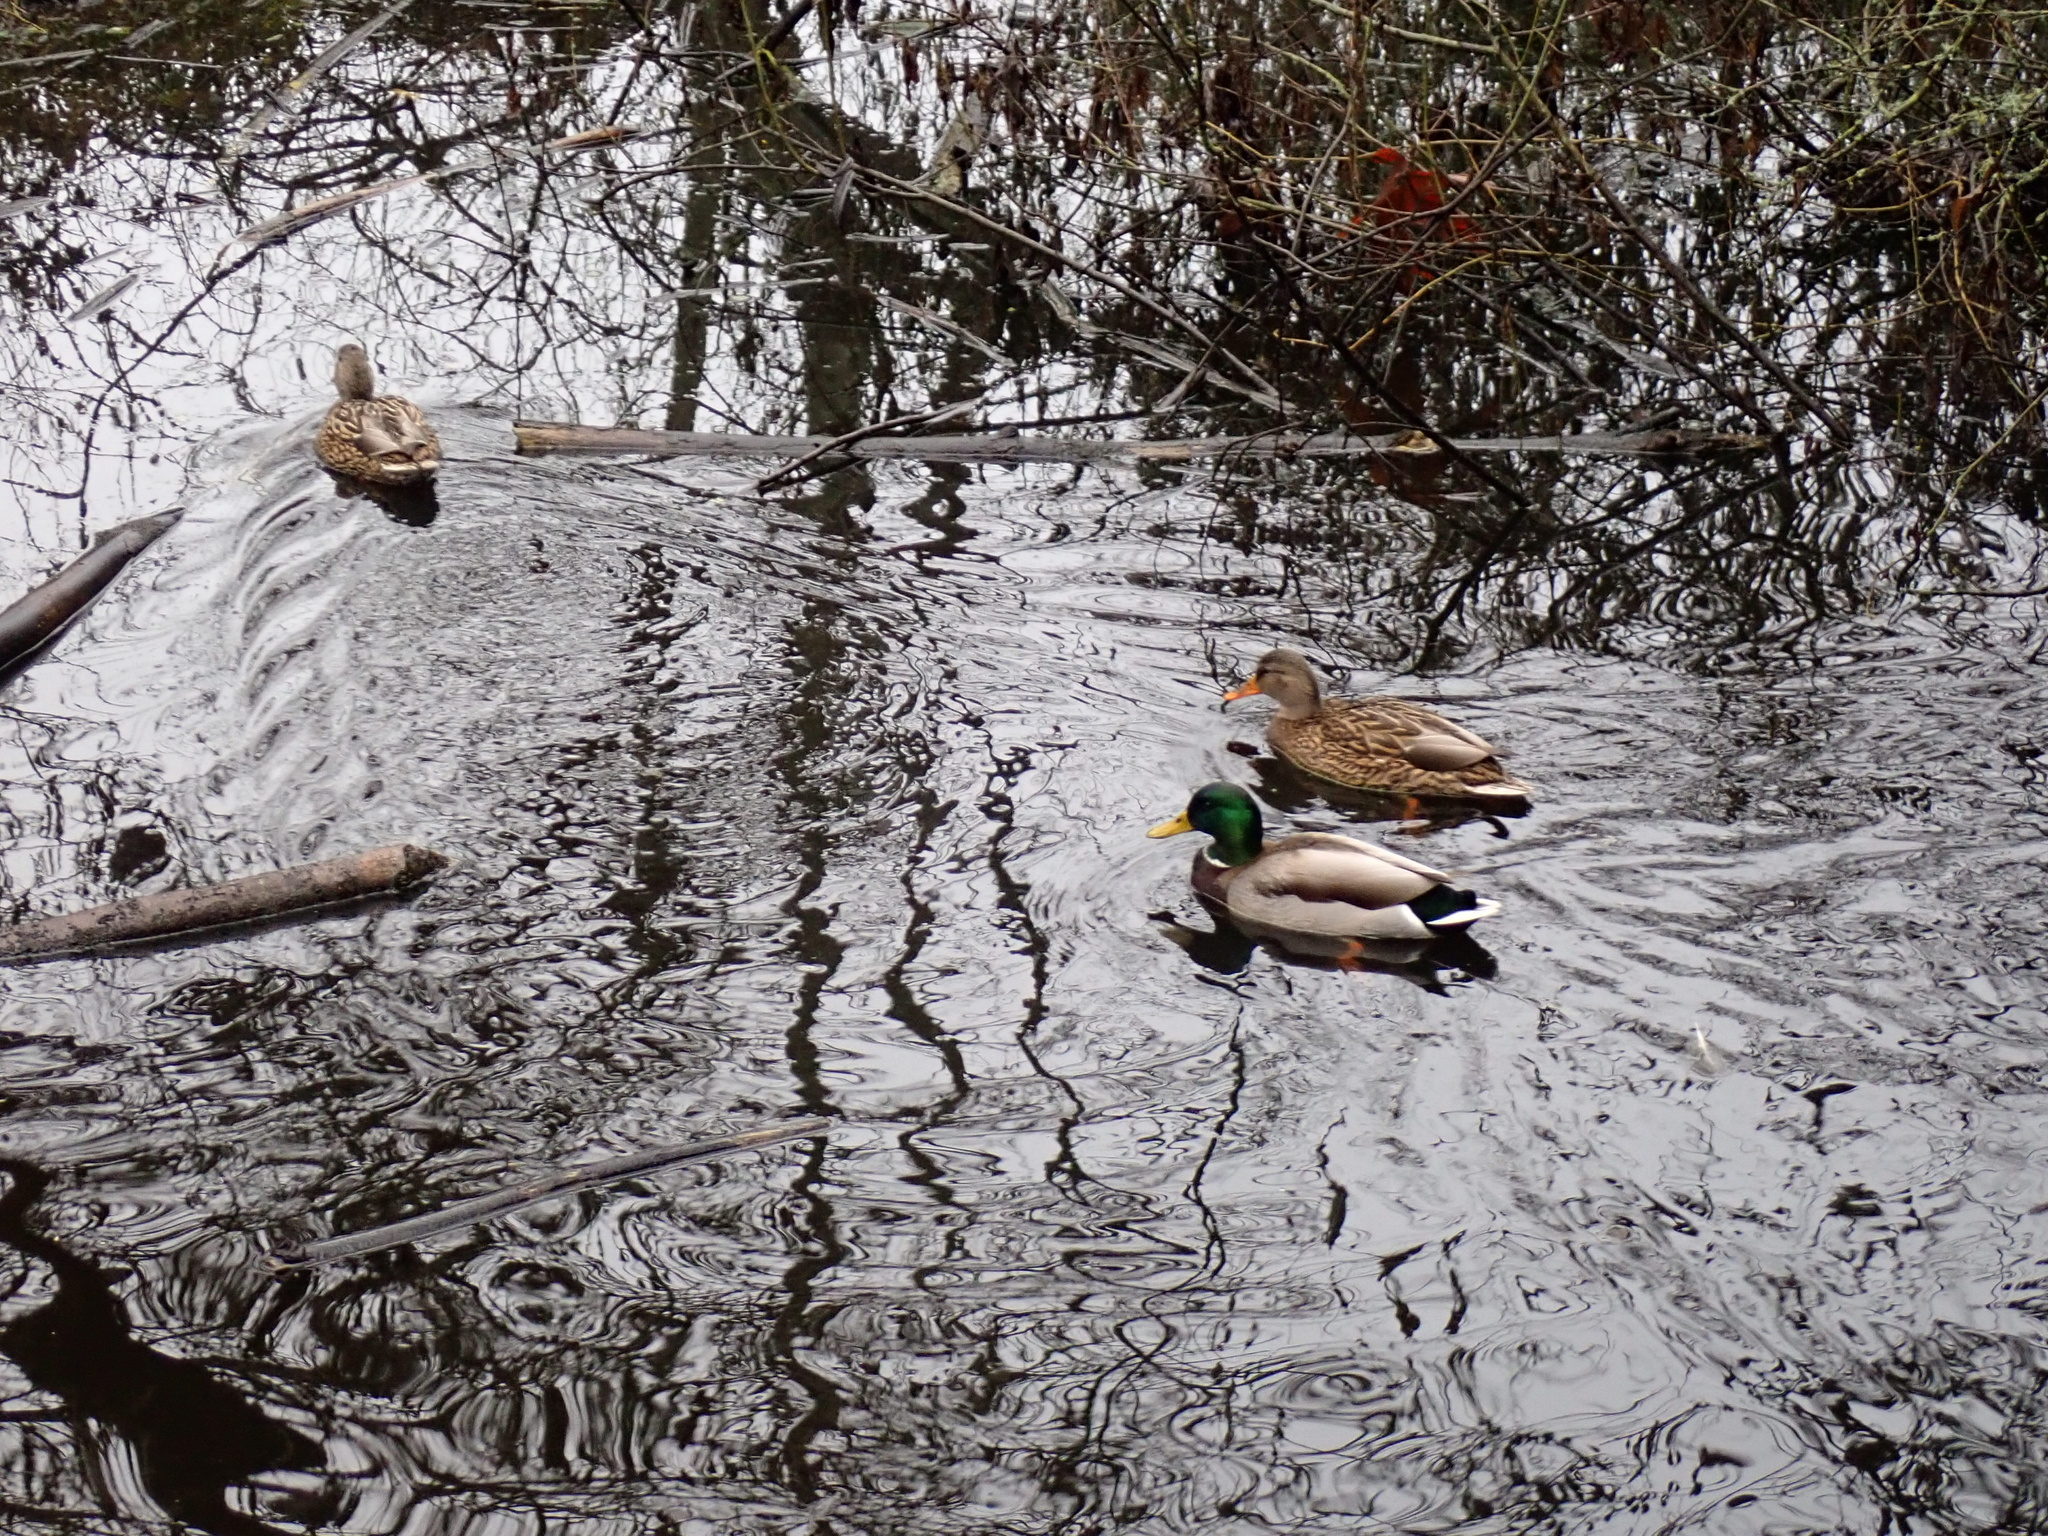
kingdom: Animalia
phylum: Chordata
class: Aves
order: Anseriformes
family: Anatidae
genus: Anas
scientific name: Anas platyrhynchos
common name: Mallard
